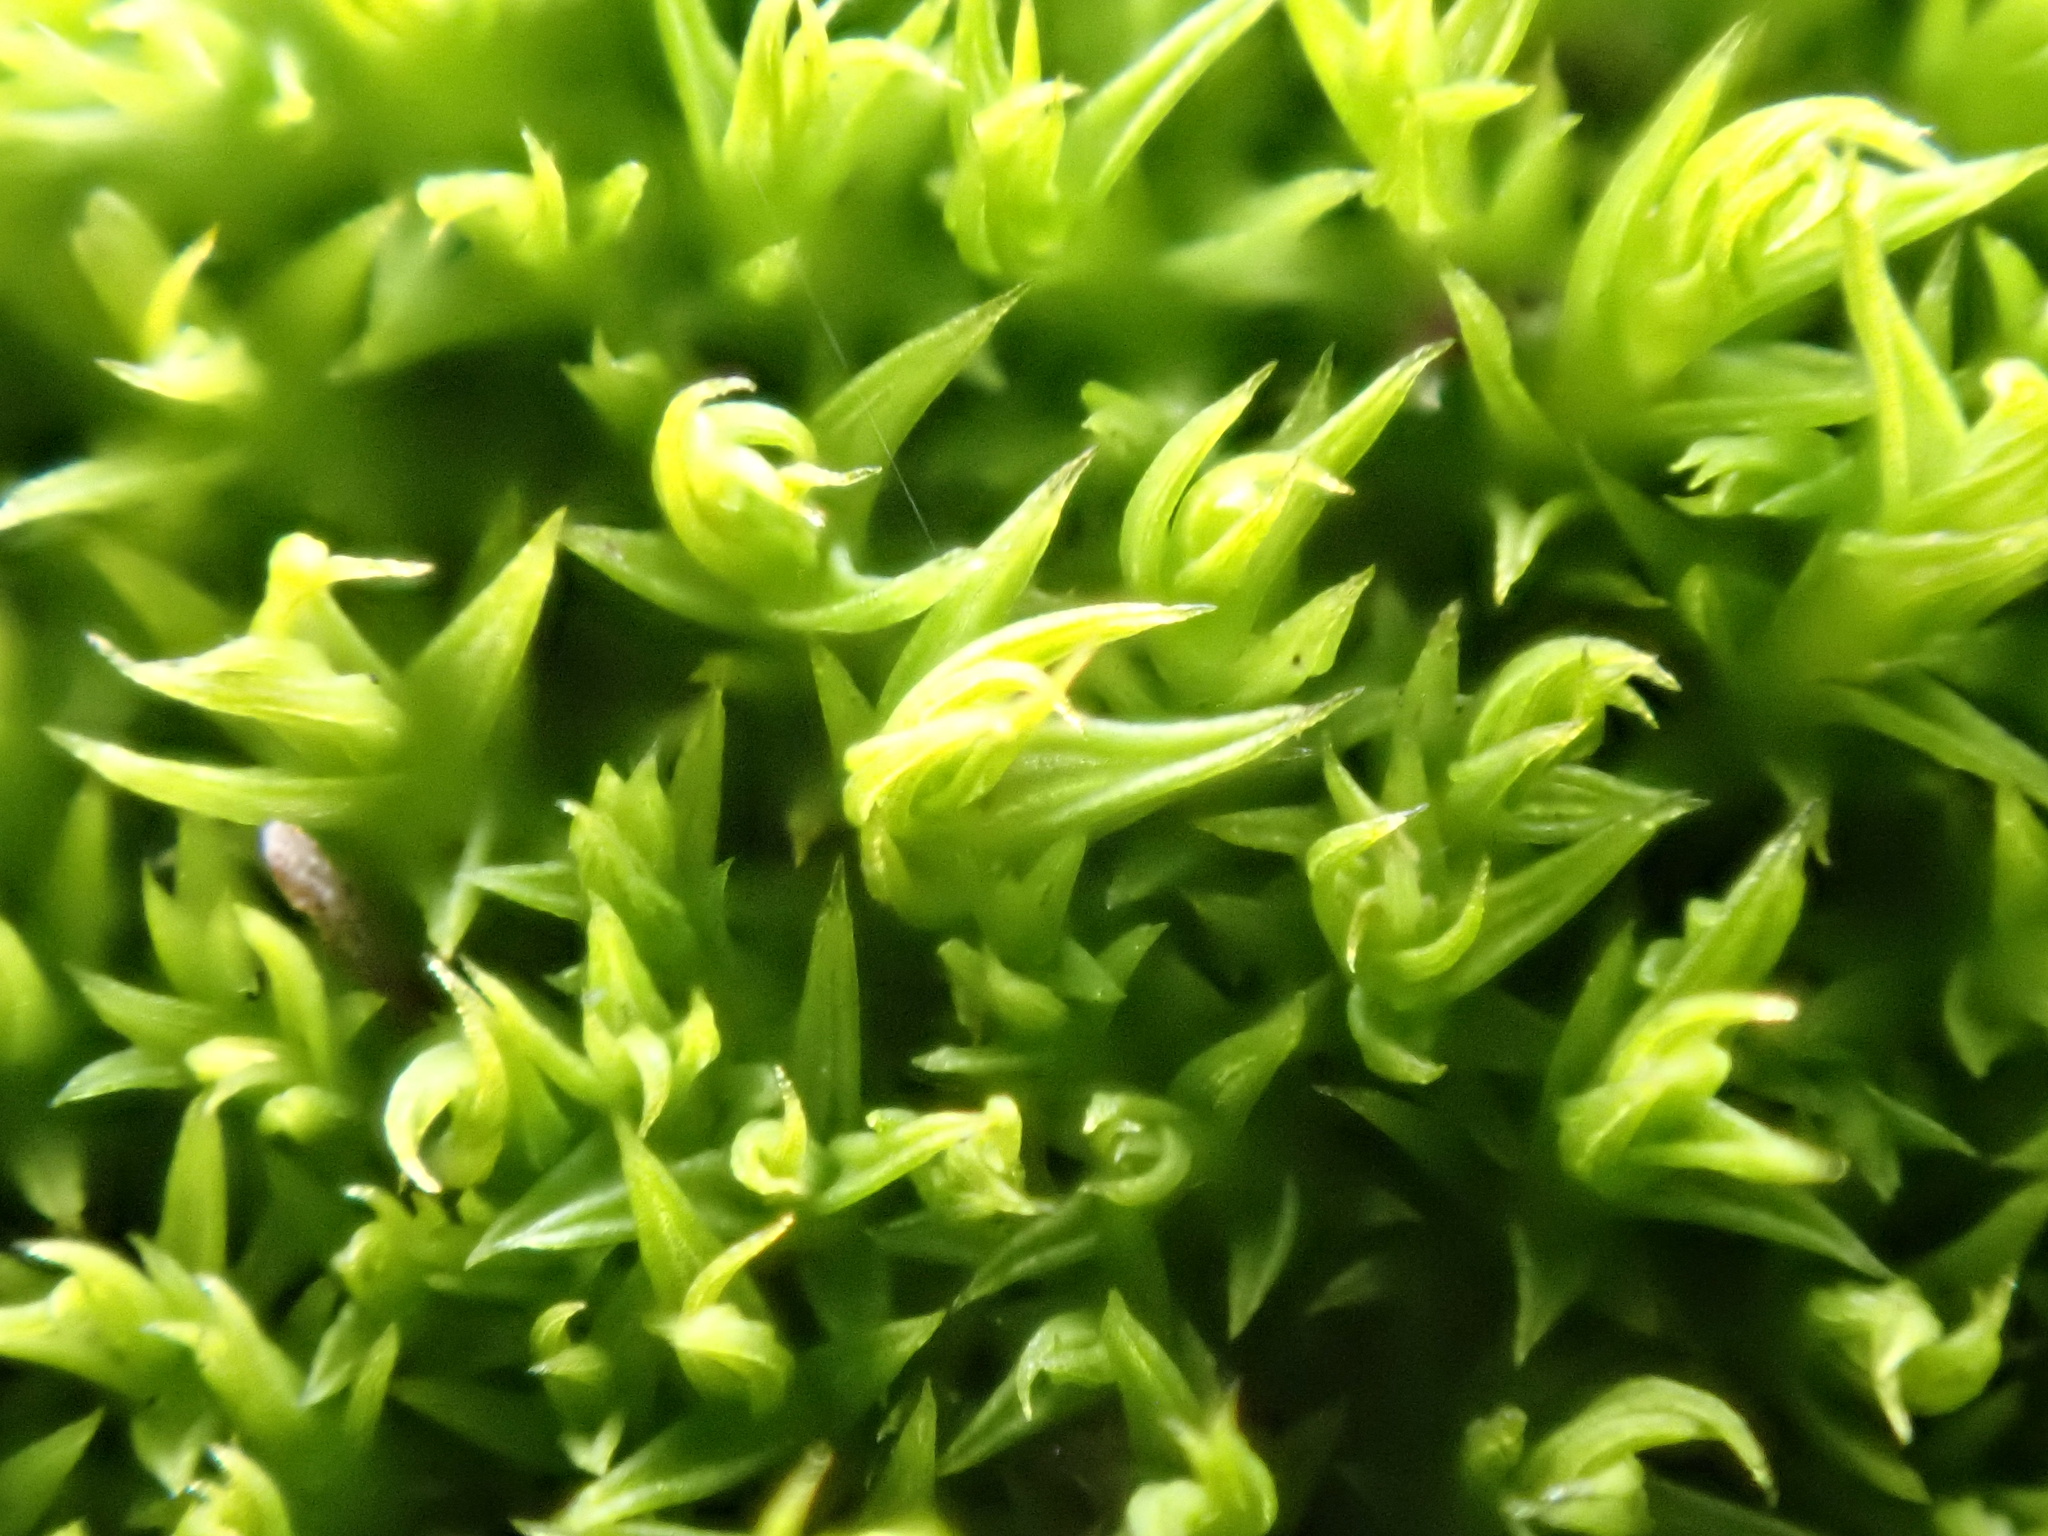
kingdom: Plantae
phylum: Bryophyta
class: Bryopsida
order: Pottiales
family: Pottiaceae
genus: Pseudocrossidium
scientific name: Pseudocrossidium hornschuchianum
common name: Hornschuch's beard-moss
